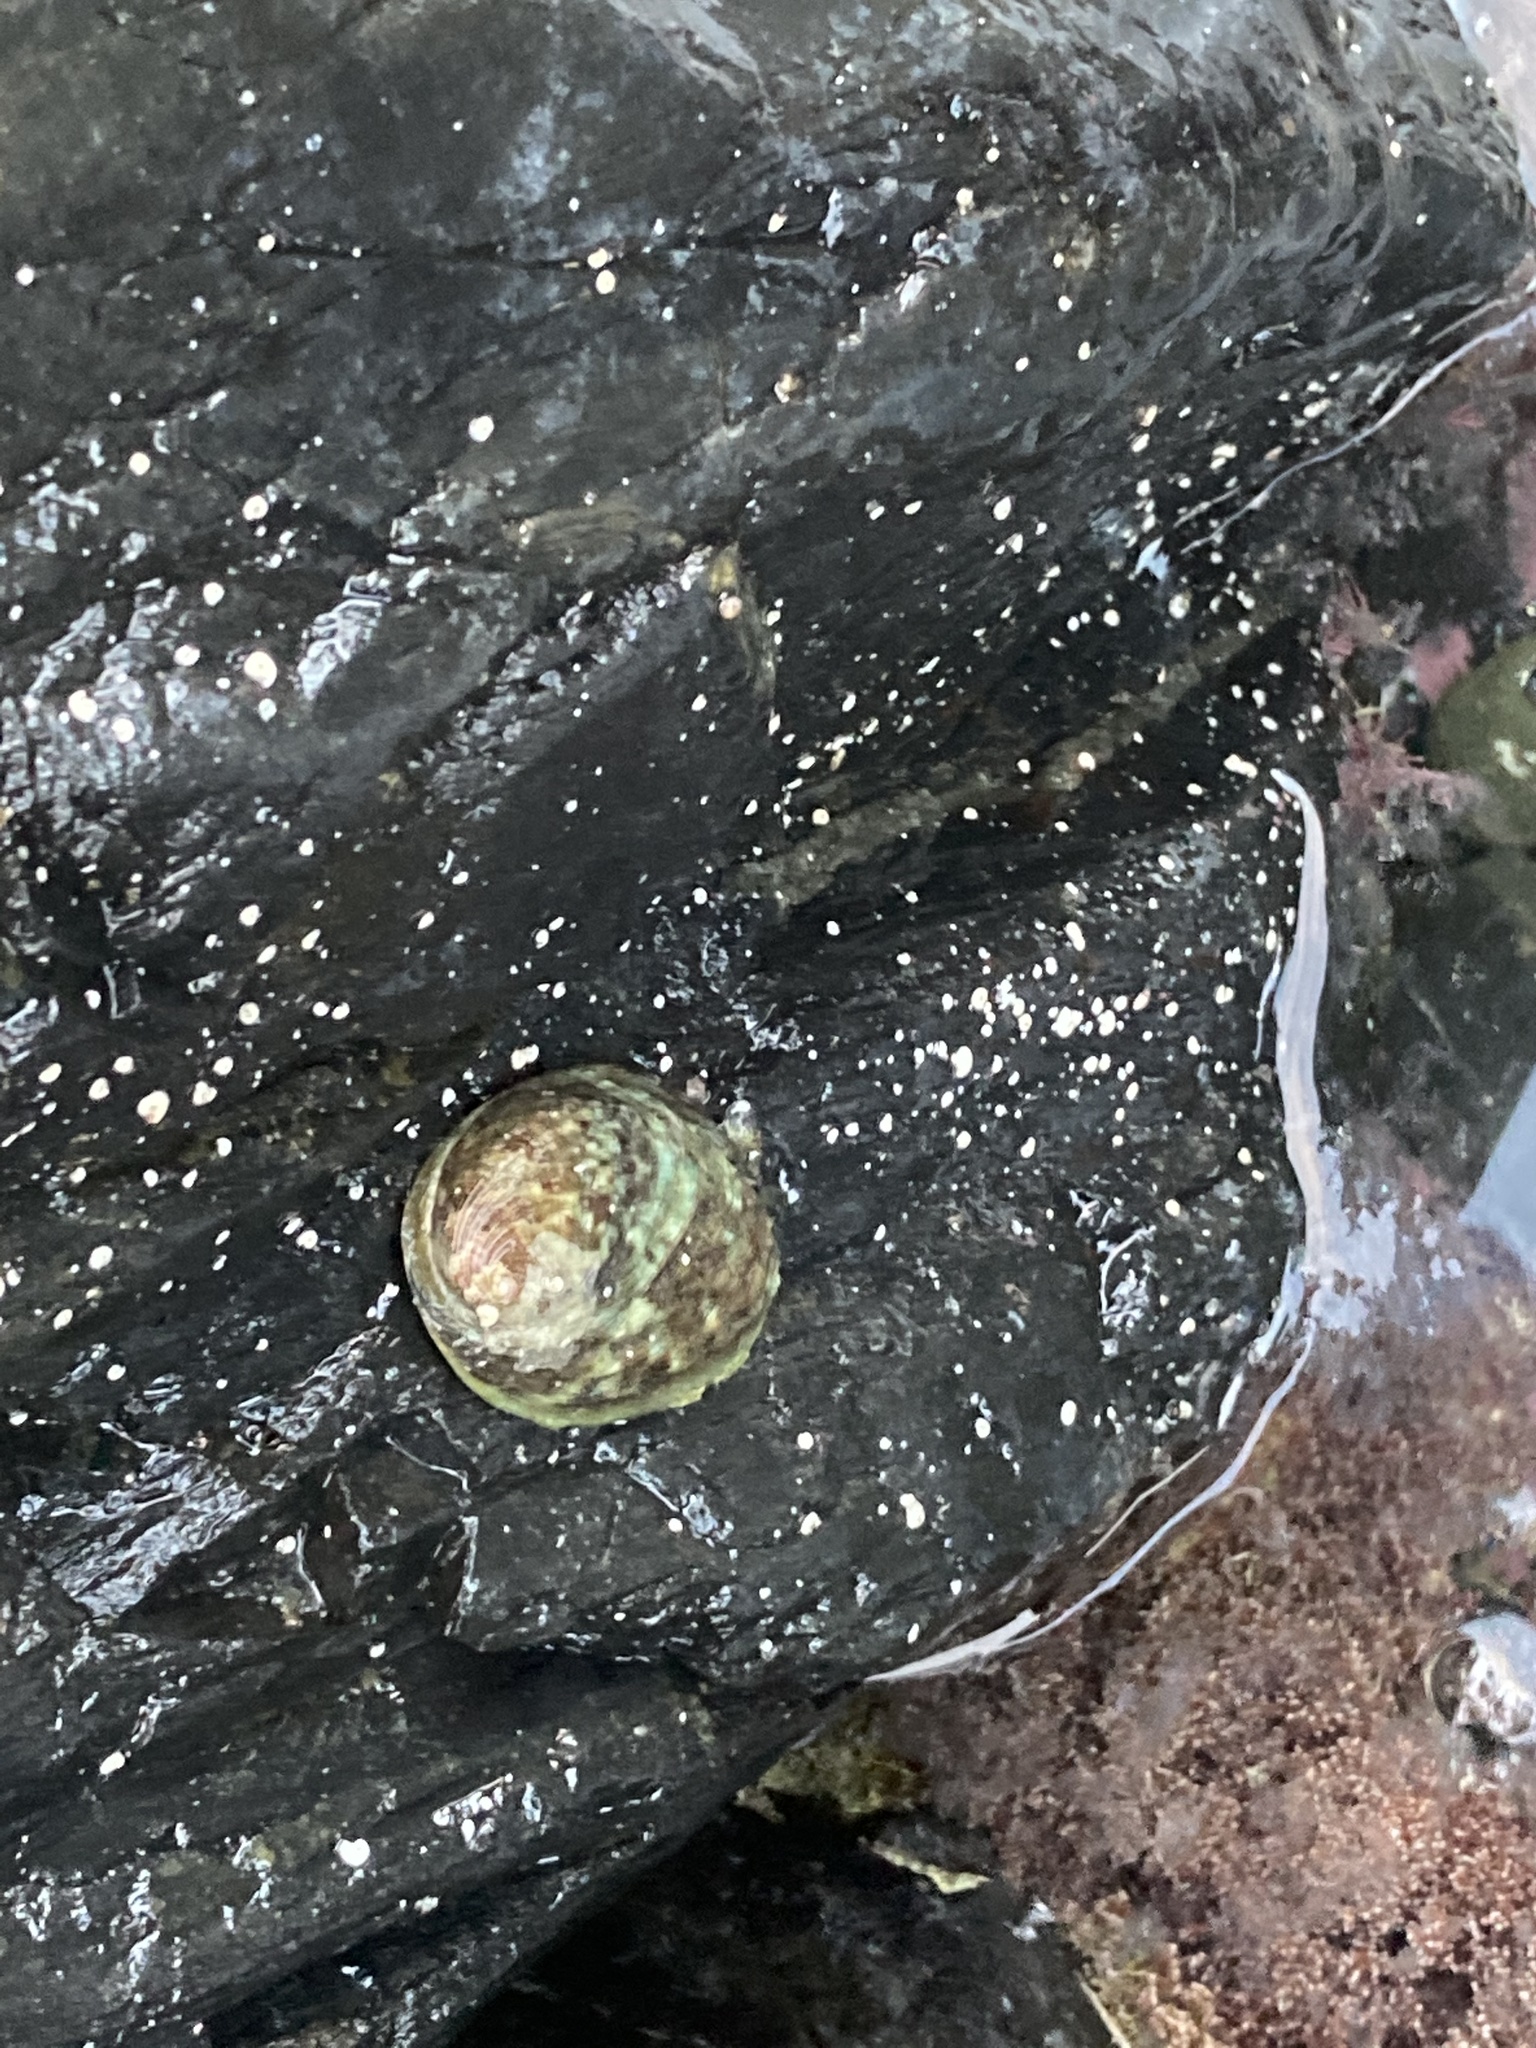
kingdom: Animalia
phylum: Mollusca
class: Gastropoda
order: Lepetellida
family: Haliotidae
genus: Haliotis
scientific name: Haliotis iris
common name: Abalone
